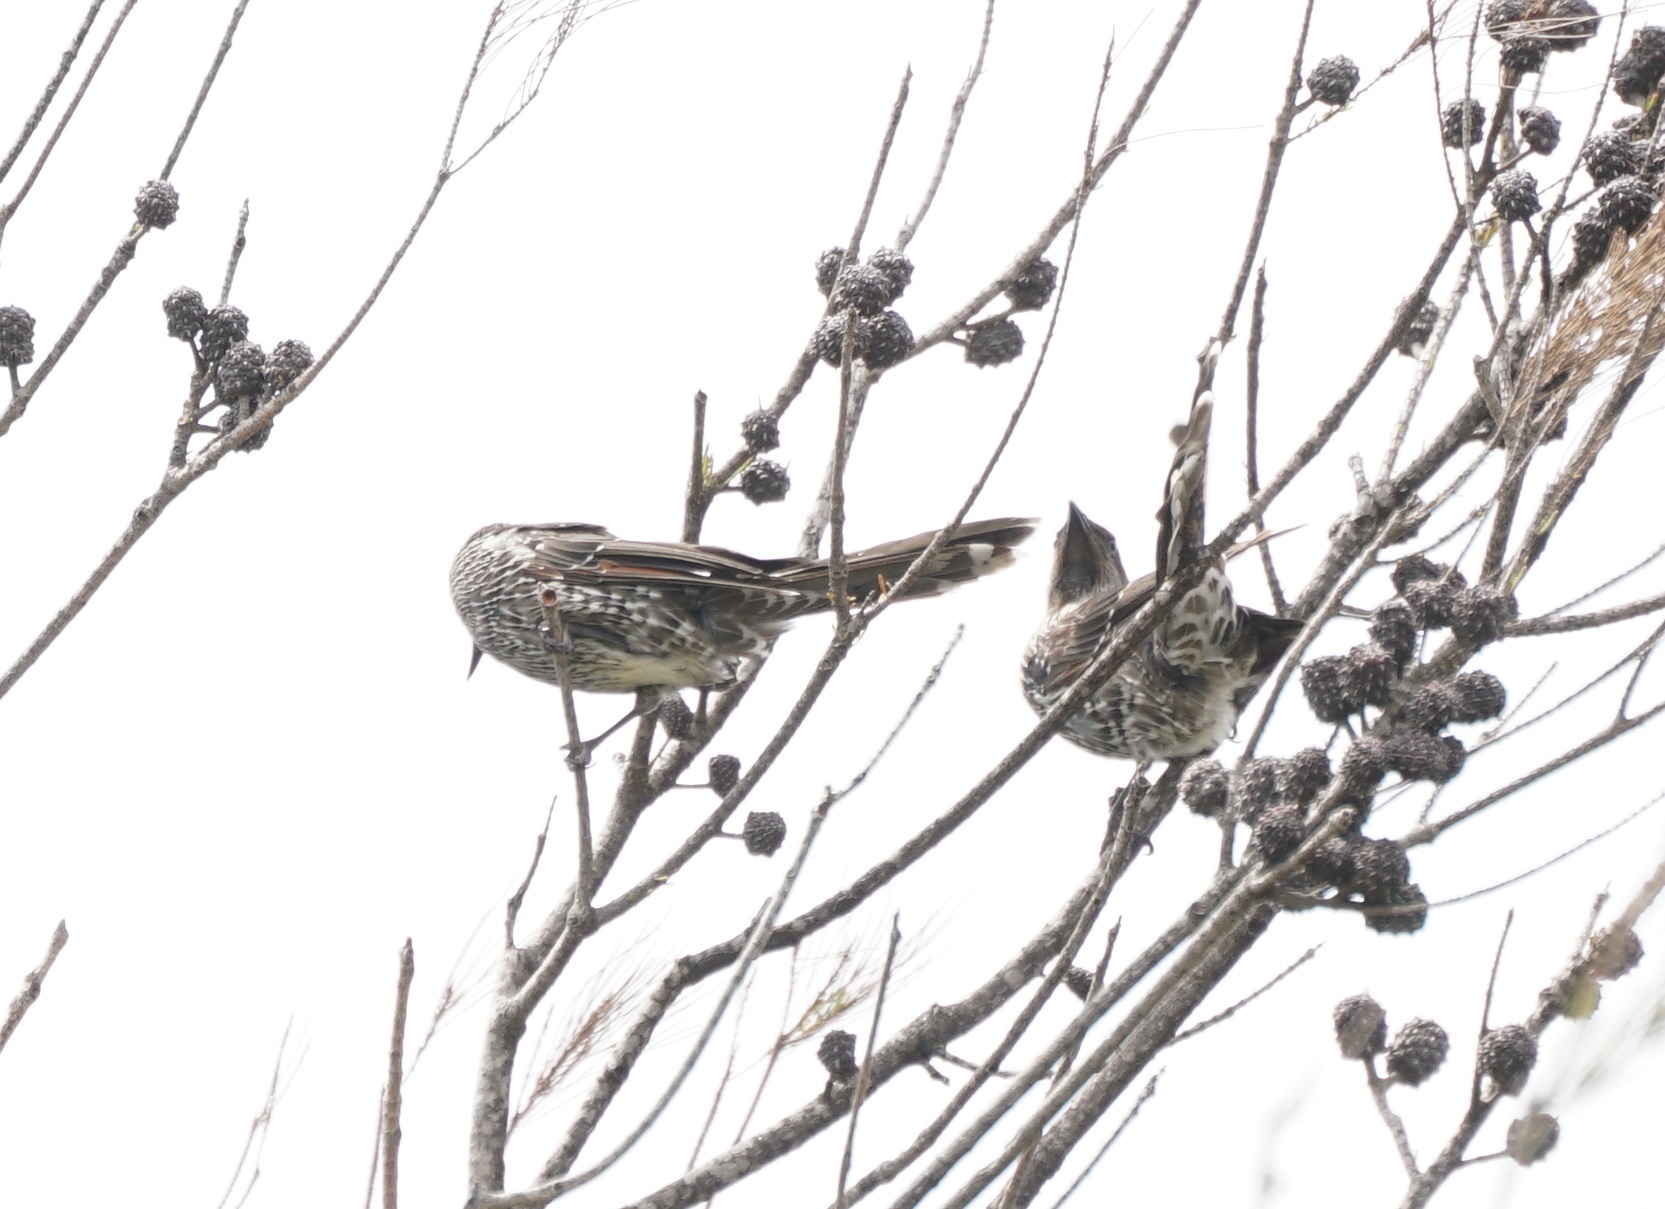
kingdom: Animalia
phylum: Chordata
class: Aves
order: Passeriformes
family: Meliphagidae
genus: Anthochaera
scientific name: Anthochaera chrysoptera
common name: Little wattlebird
